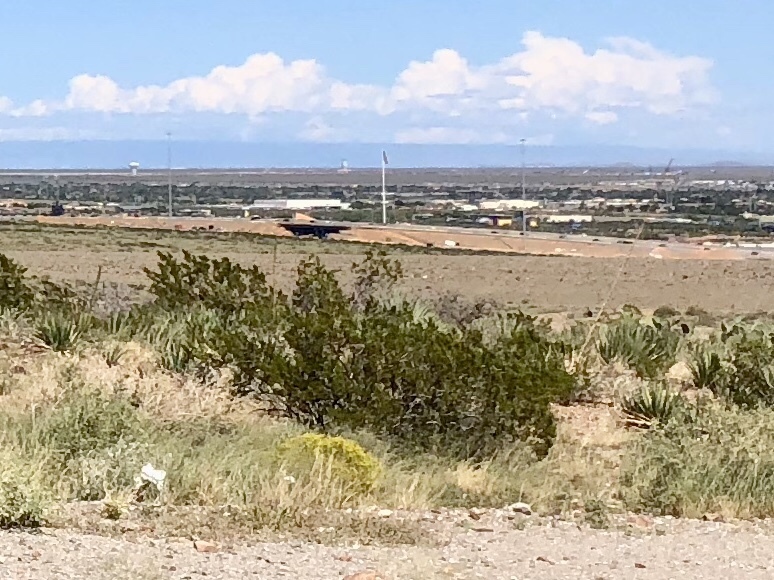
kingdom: Plantae
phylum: Tracheophyta
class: Magnoliopsida
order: Zygophyllales
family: Zygophyllaceae
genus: Larrea
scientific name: Larrea tridentata
